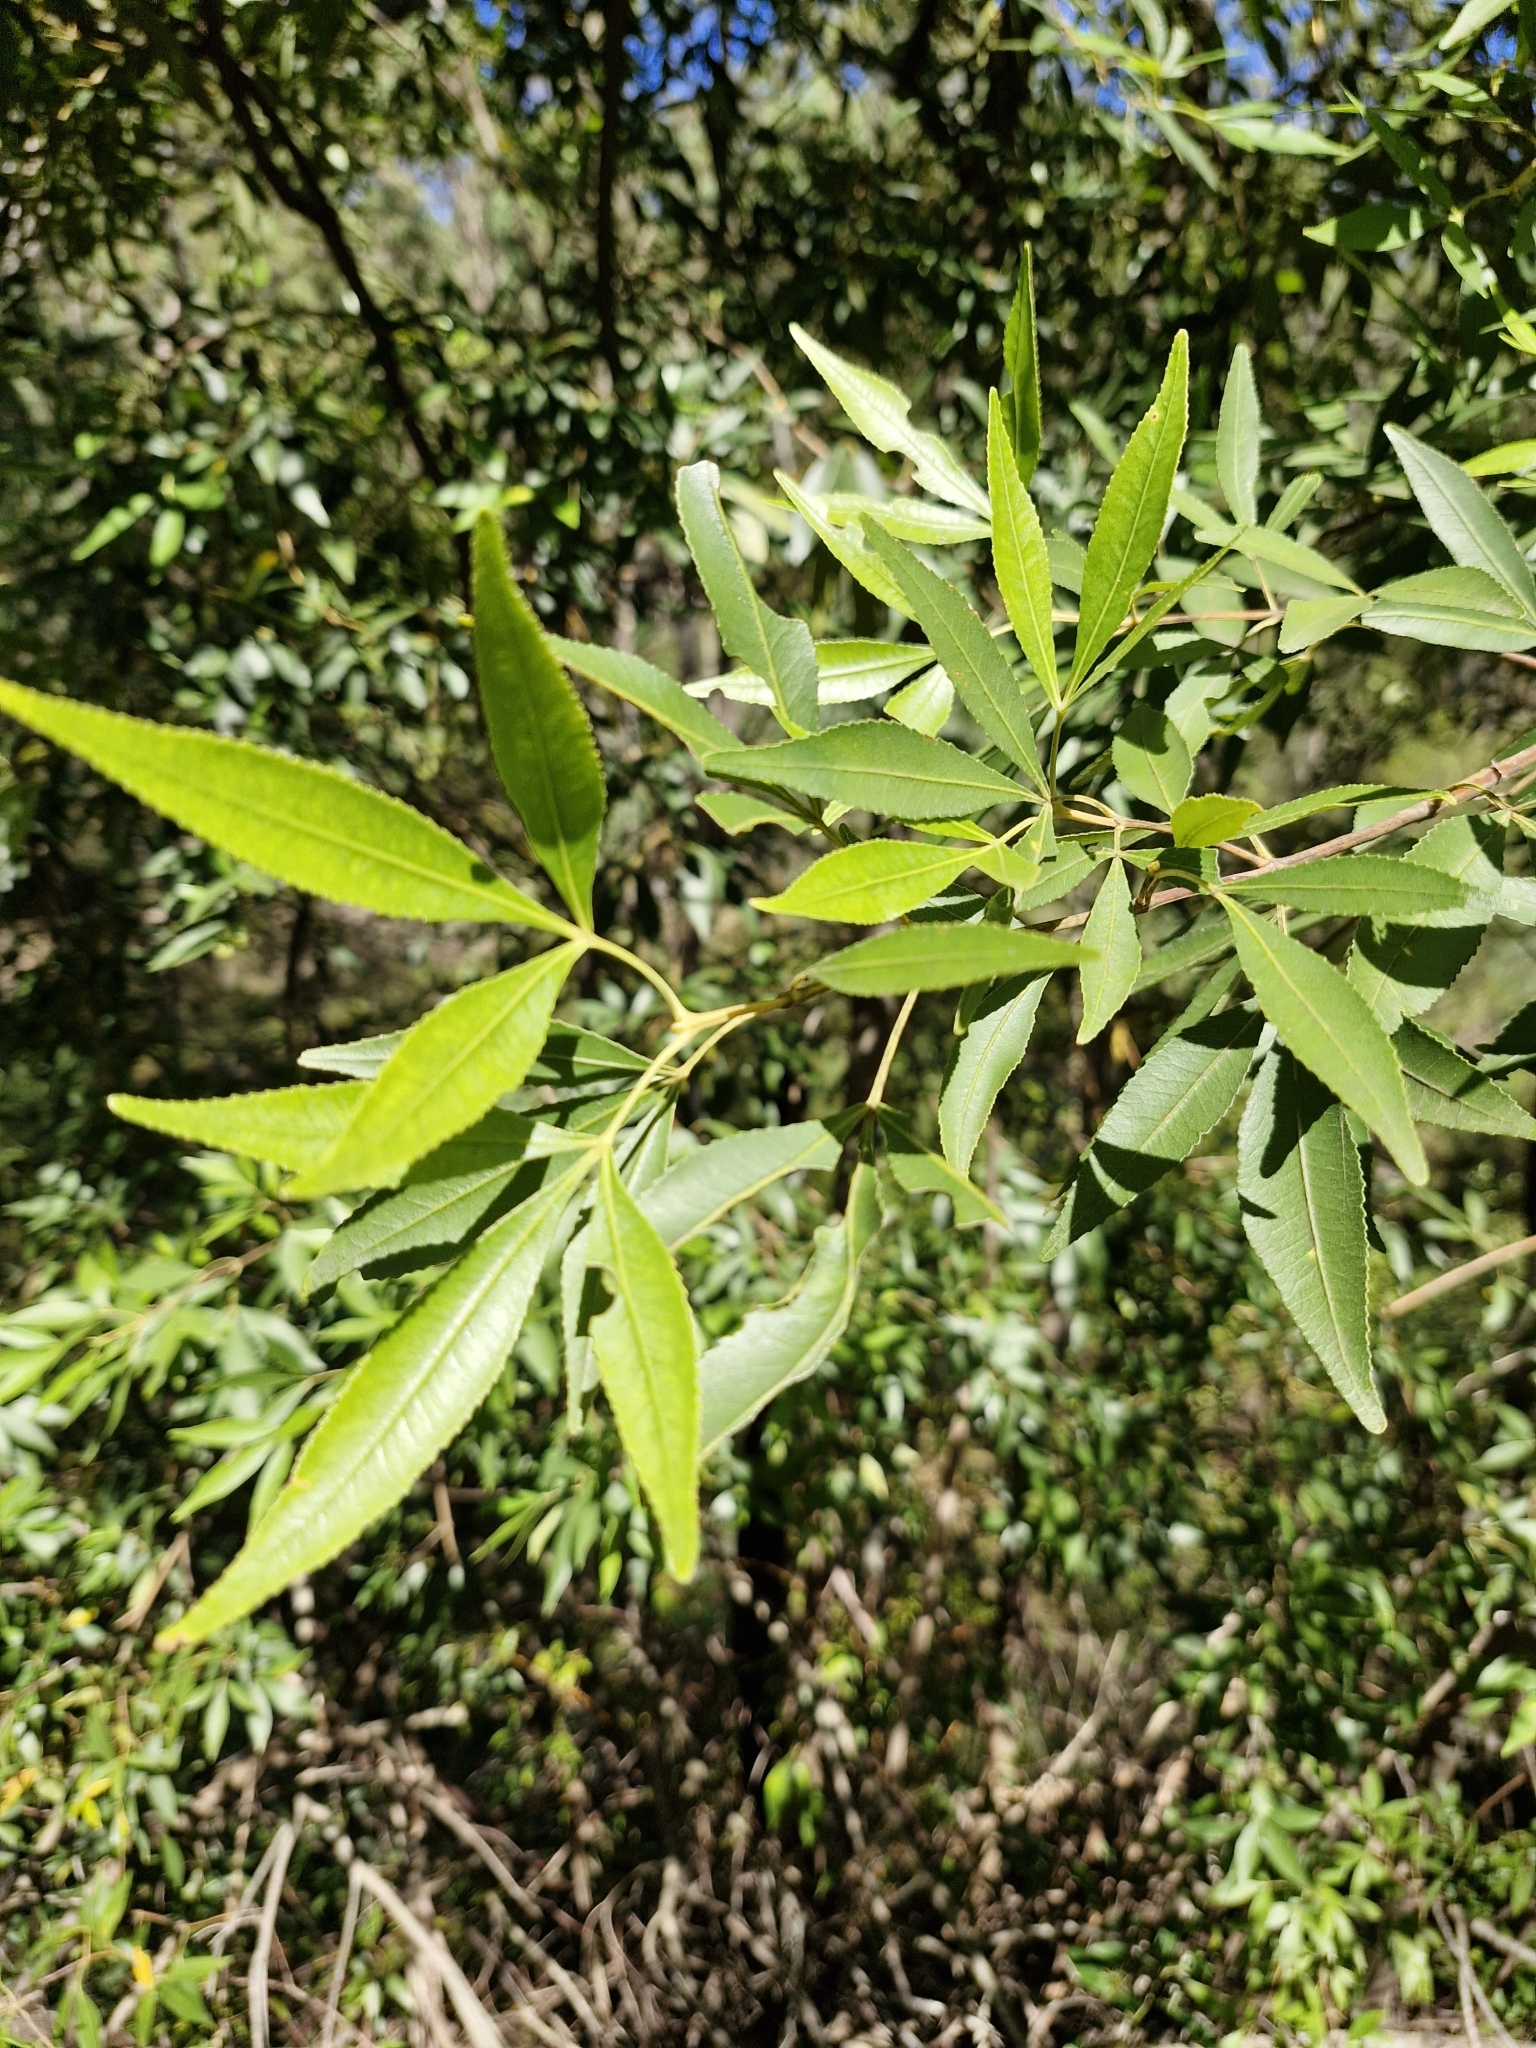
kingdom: Plantae
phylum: Tracheophyta
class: Magnoliopsida
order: Oxalidales
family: Cunoniaceae
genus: Ceratopetalum
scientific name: Ceratopetalum gummiferum
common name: Christmasbush
